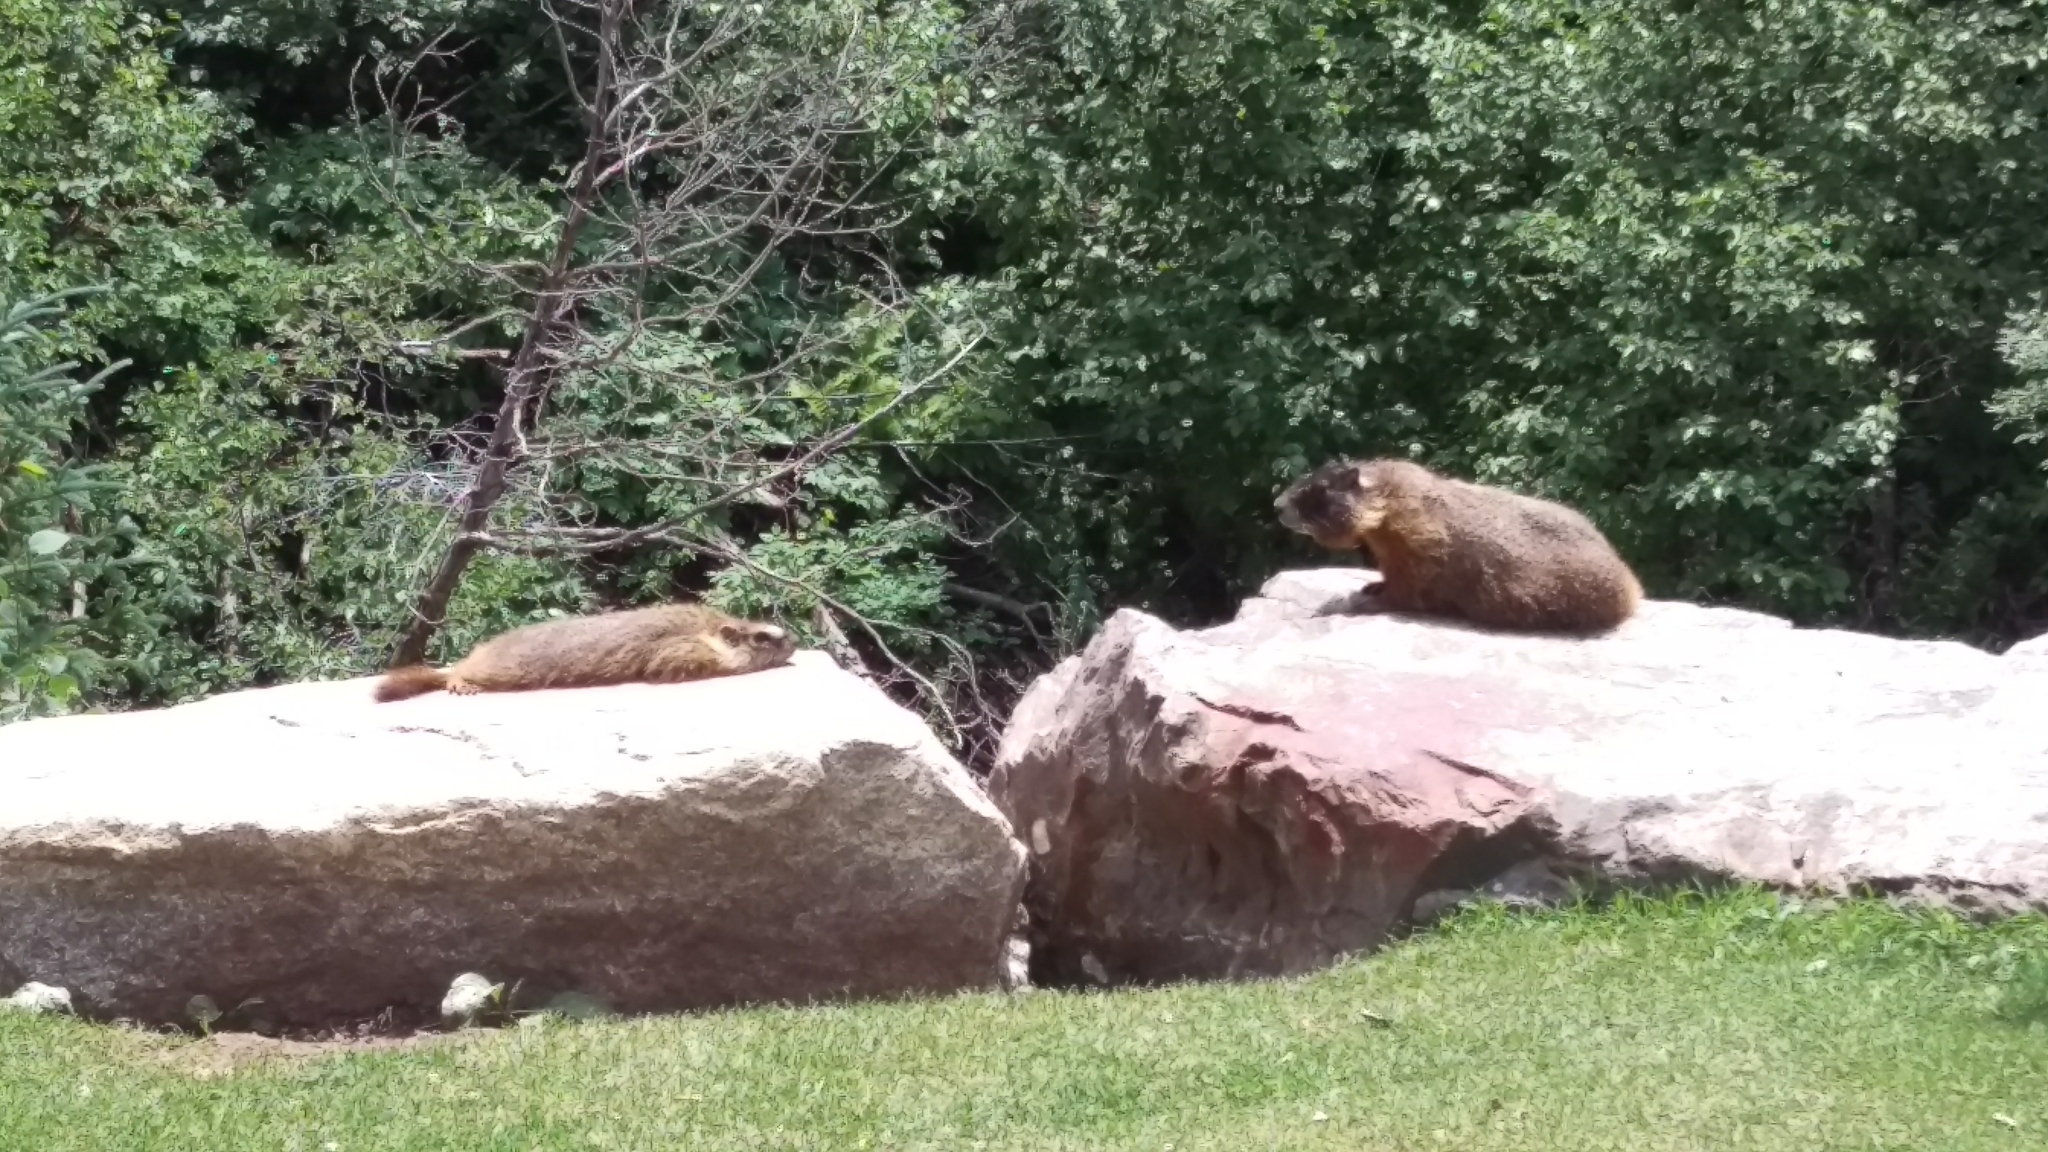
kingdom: Animalia
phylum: Chordata
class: Mammalia
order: Rodentia
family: Sciuridae
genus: Marmota
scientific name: Marmota flaviventris
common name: Yellow-bellied marmot
